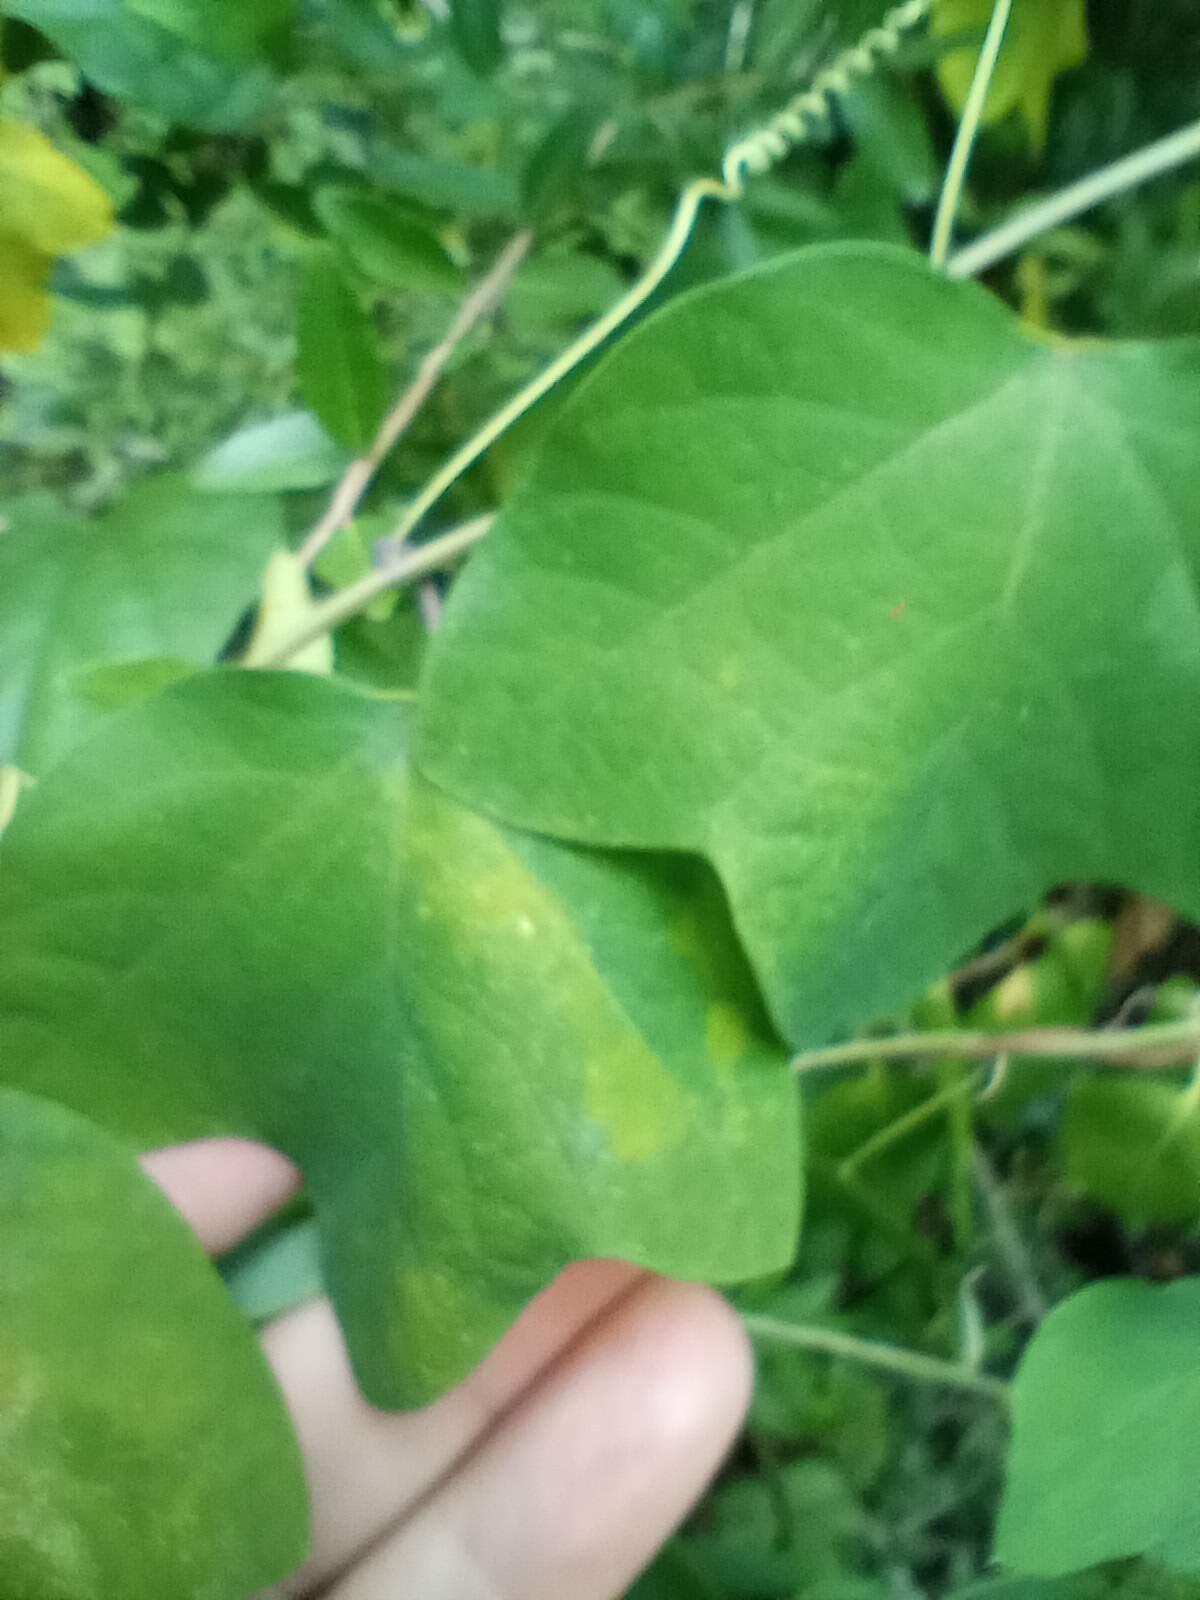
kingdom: Plantae
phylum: Tracheophyta
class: Magnoliopsida
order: Malpighiales
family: Passifloraceae
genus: Passiflora
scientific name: Passiflora lutea
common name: Yellow passionflower
